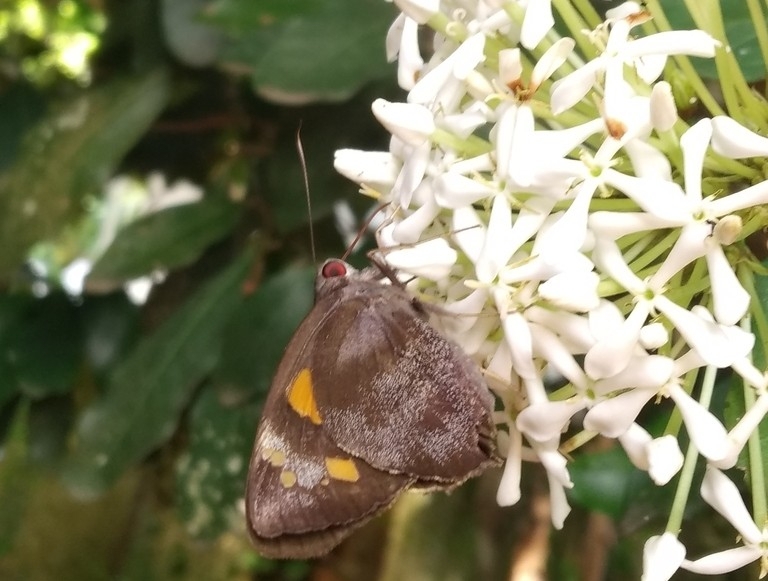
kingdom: Animalia
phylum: Arthropoda
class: Insecta
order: Lepidoptera
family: Hesperiidae
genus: Gangara
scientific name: Gangara thyrsis
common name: Giant redeye
